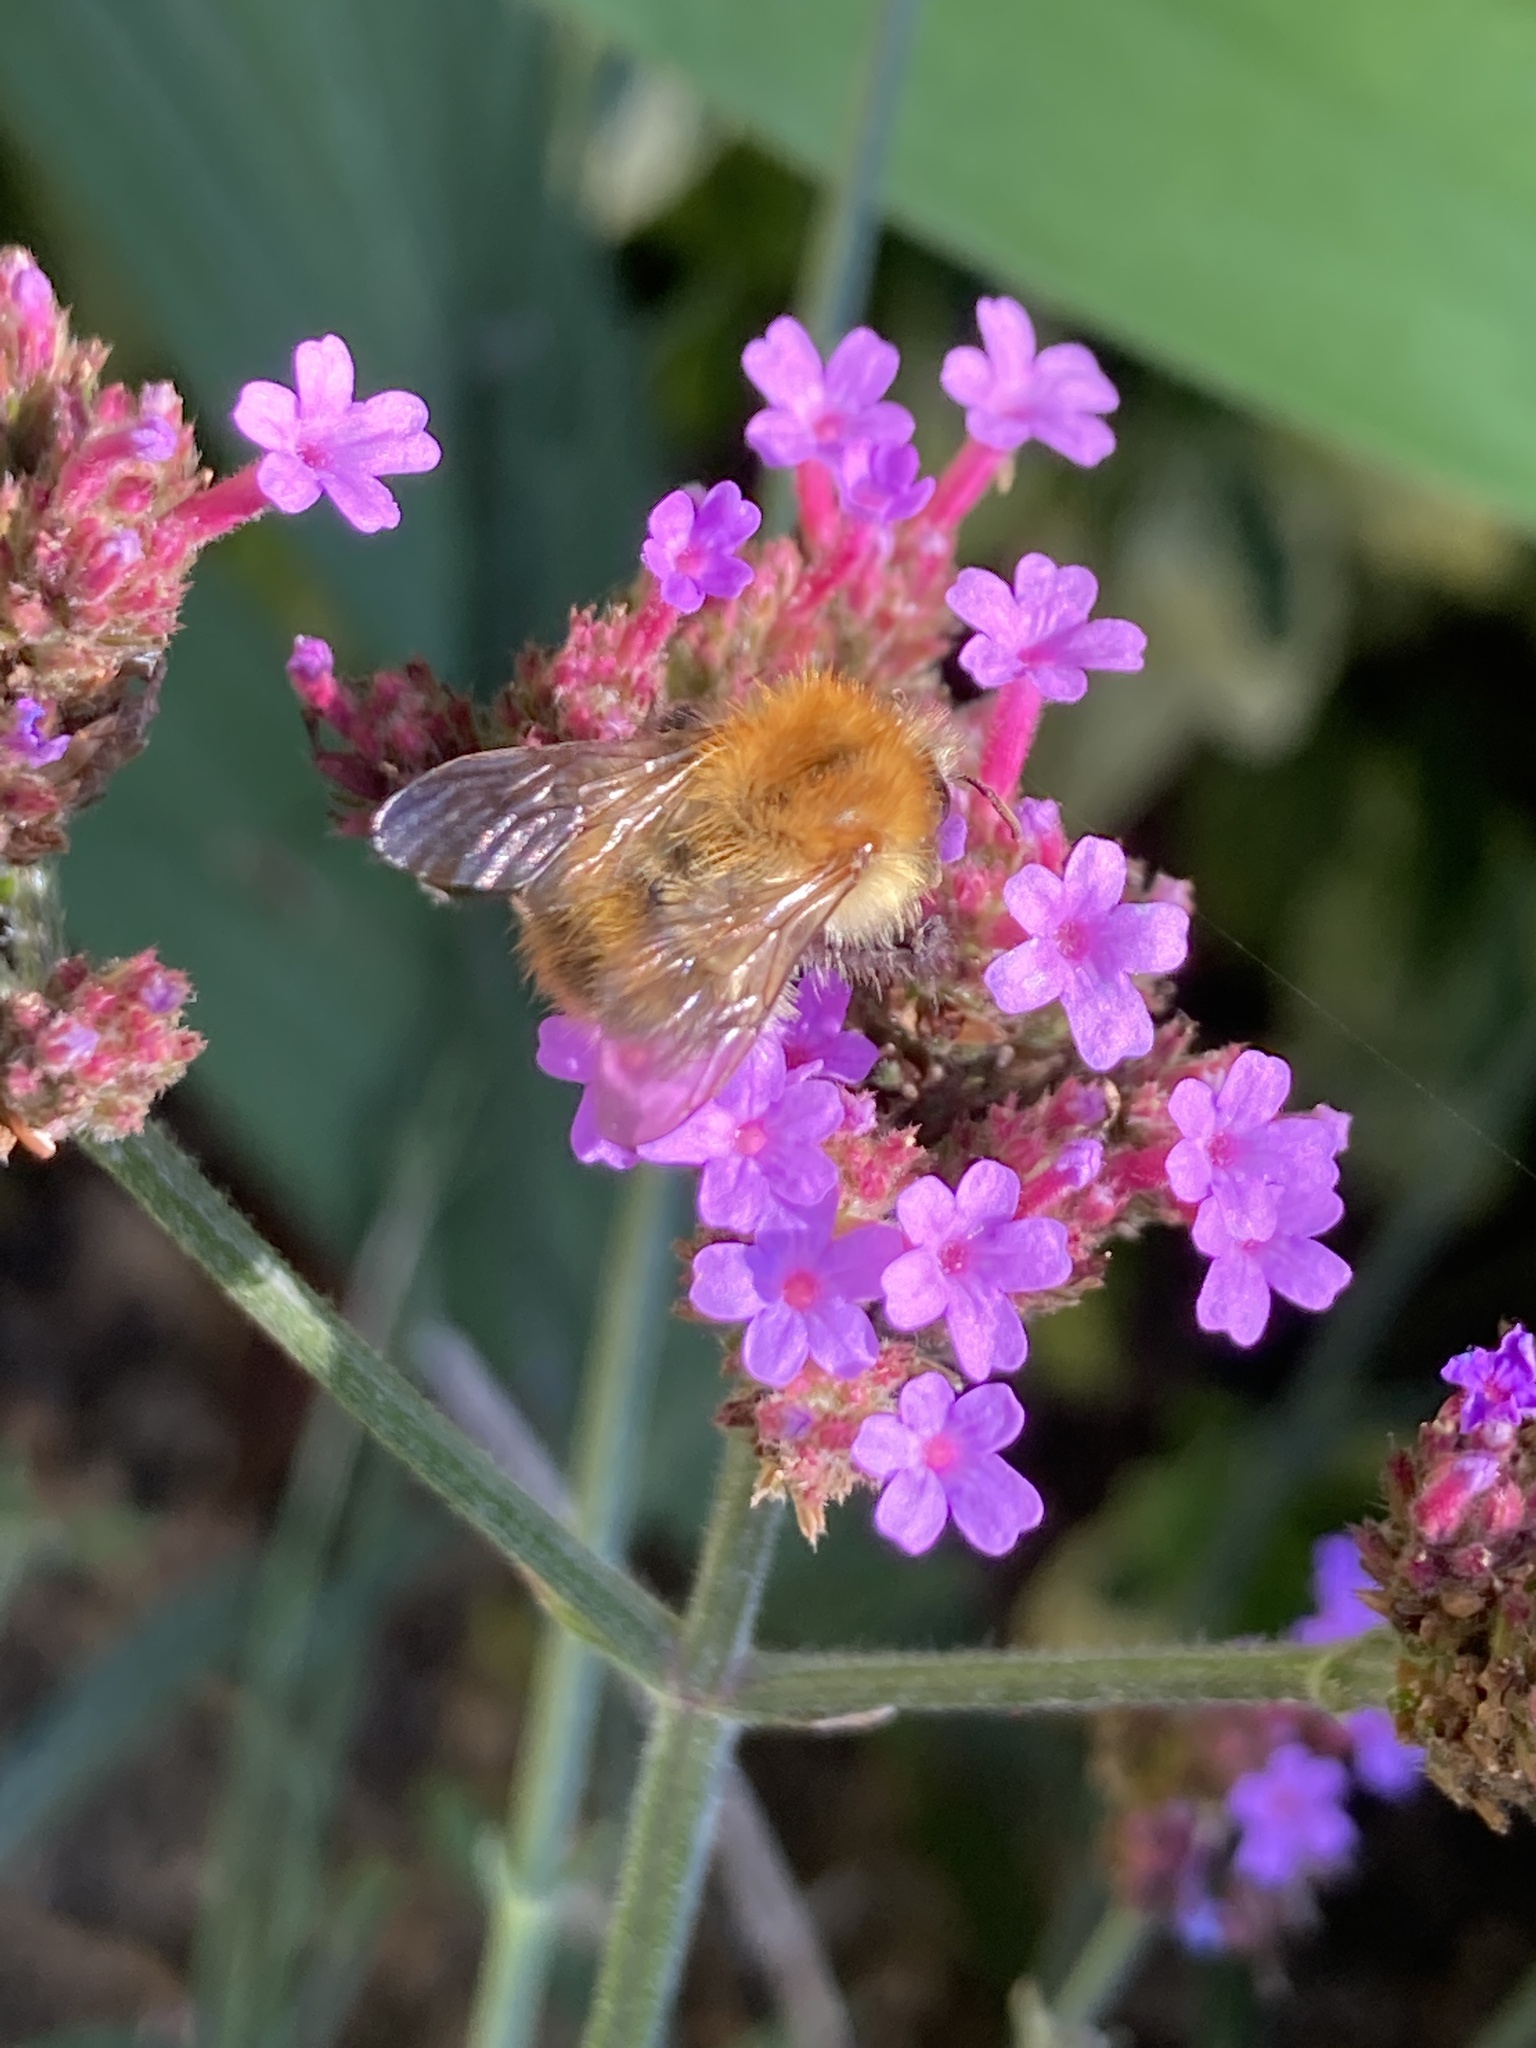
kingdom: Animalia
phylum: Arthropoda
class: Insecta
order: Hymenoptera
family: Apidae
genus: Bombus
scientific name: Bombus pascuorum
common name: Common carder bee
